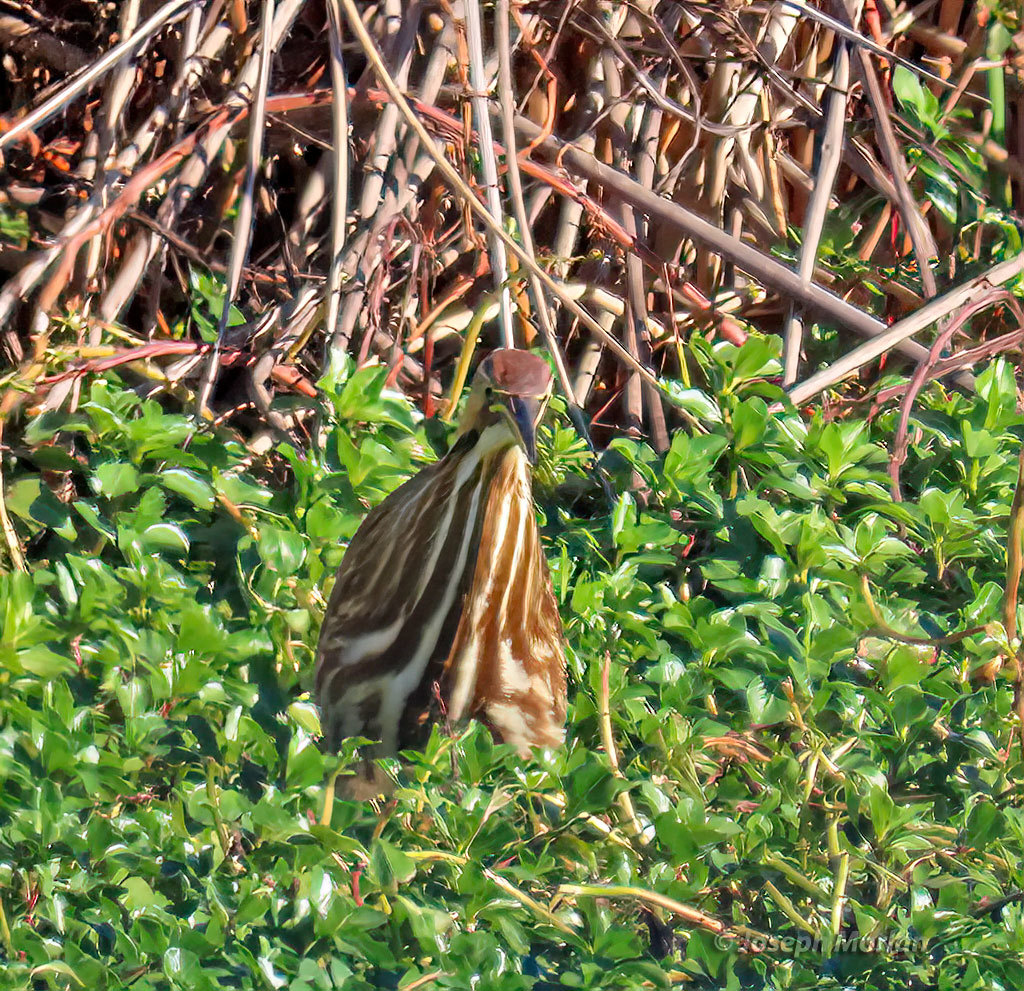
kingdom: Animalia
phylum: Chordata
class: Aves
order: Pelecaniformes
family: Ardeidae
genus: Botaurus
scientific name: Botaurus lentiginosus
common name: American bittern
